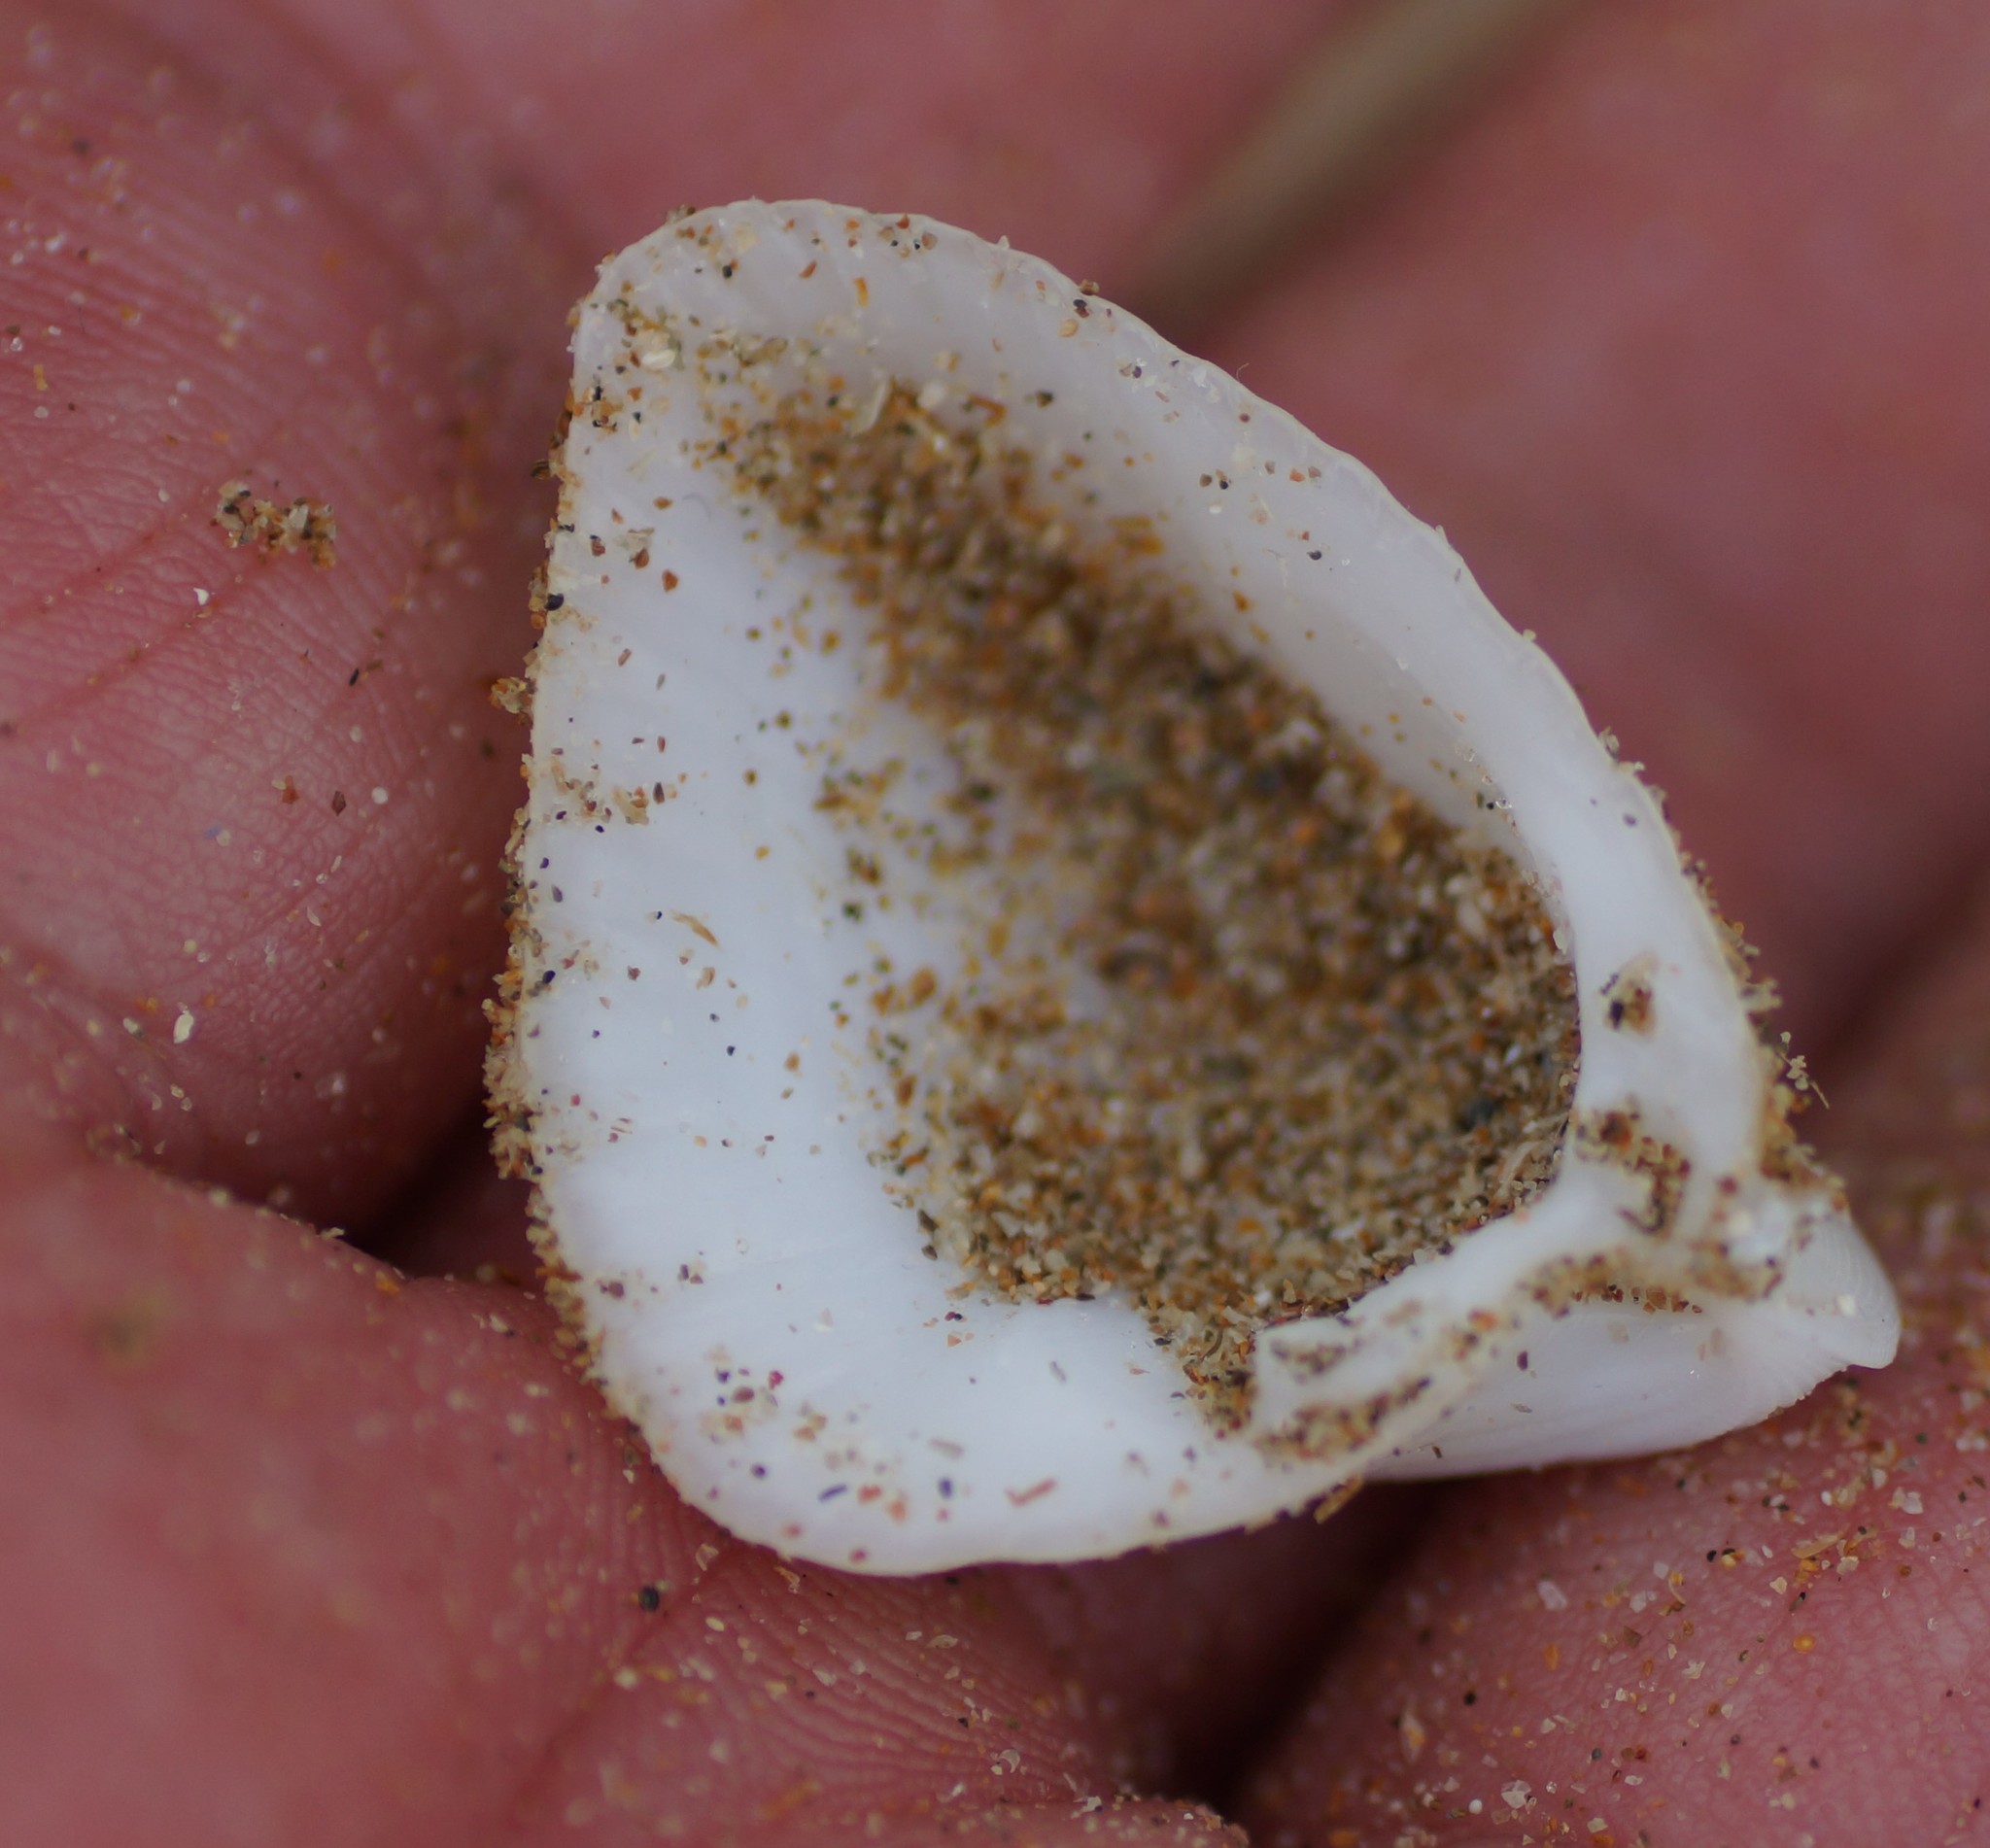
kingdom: Animalia
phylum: Mollusca
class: Bivalvia
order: Cardiida
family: Cardiidae
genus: Lunulicardia
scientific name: Lunulicardia hemicardium
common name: Half heart cockle
